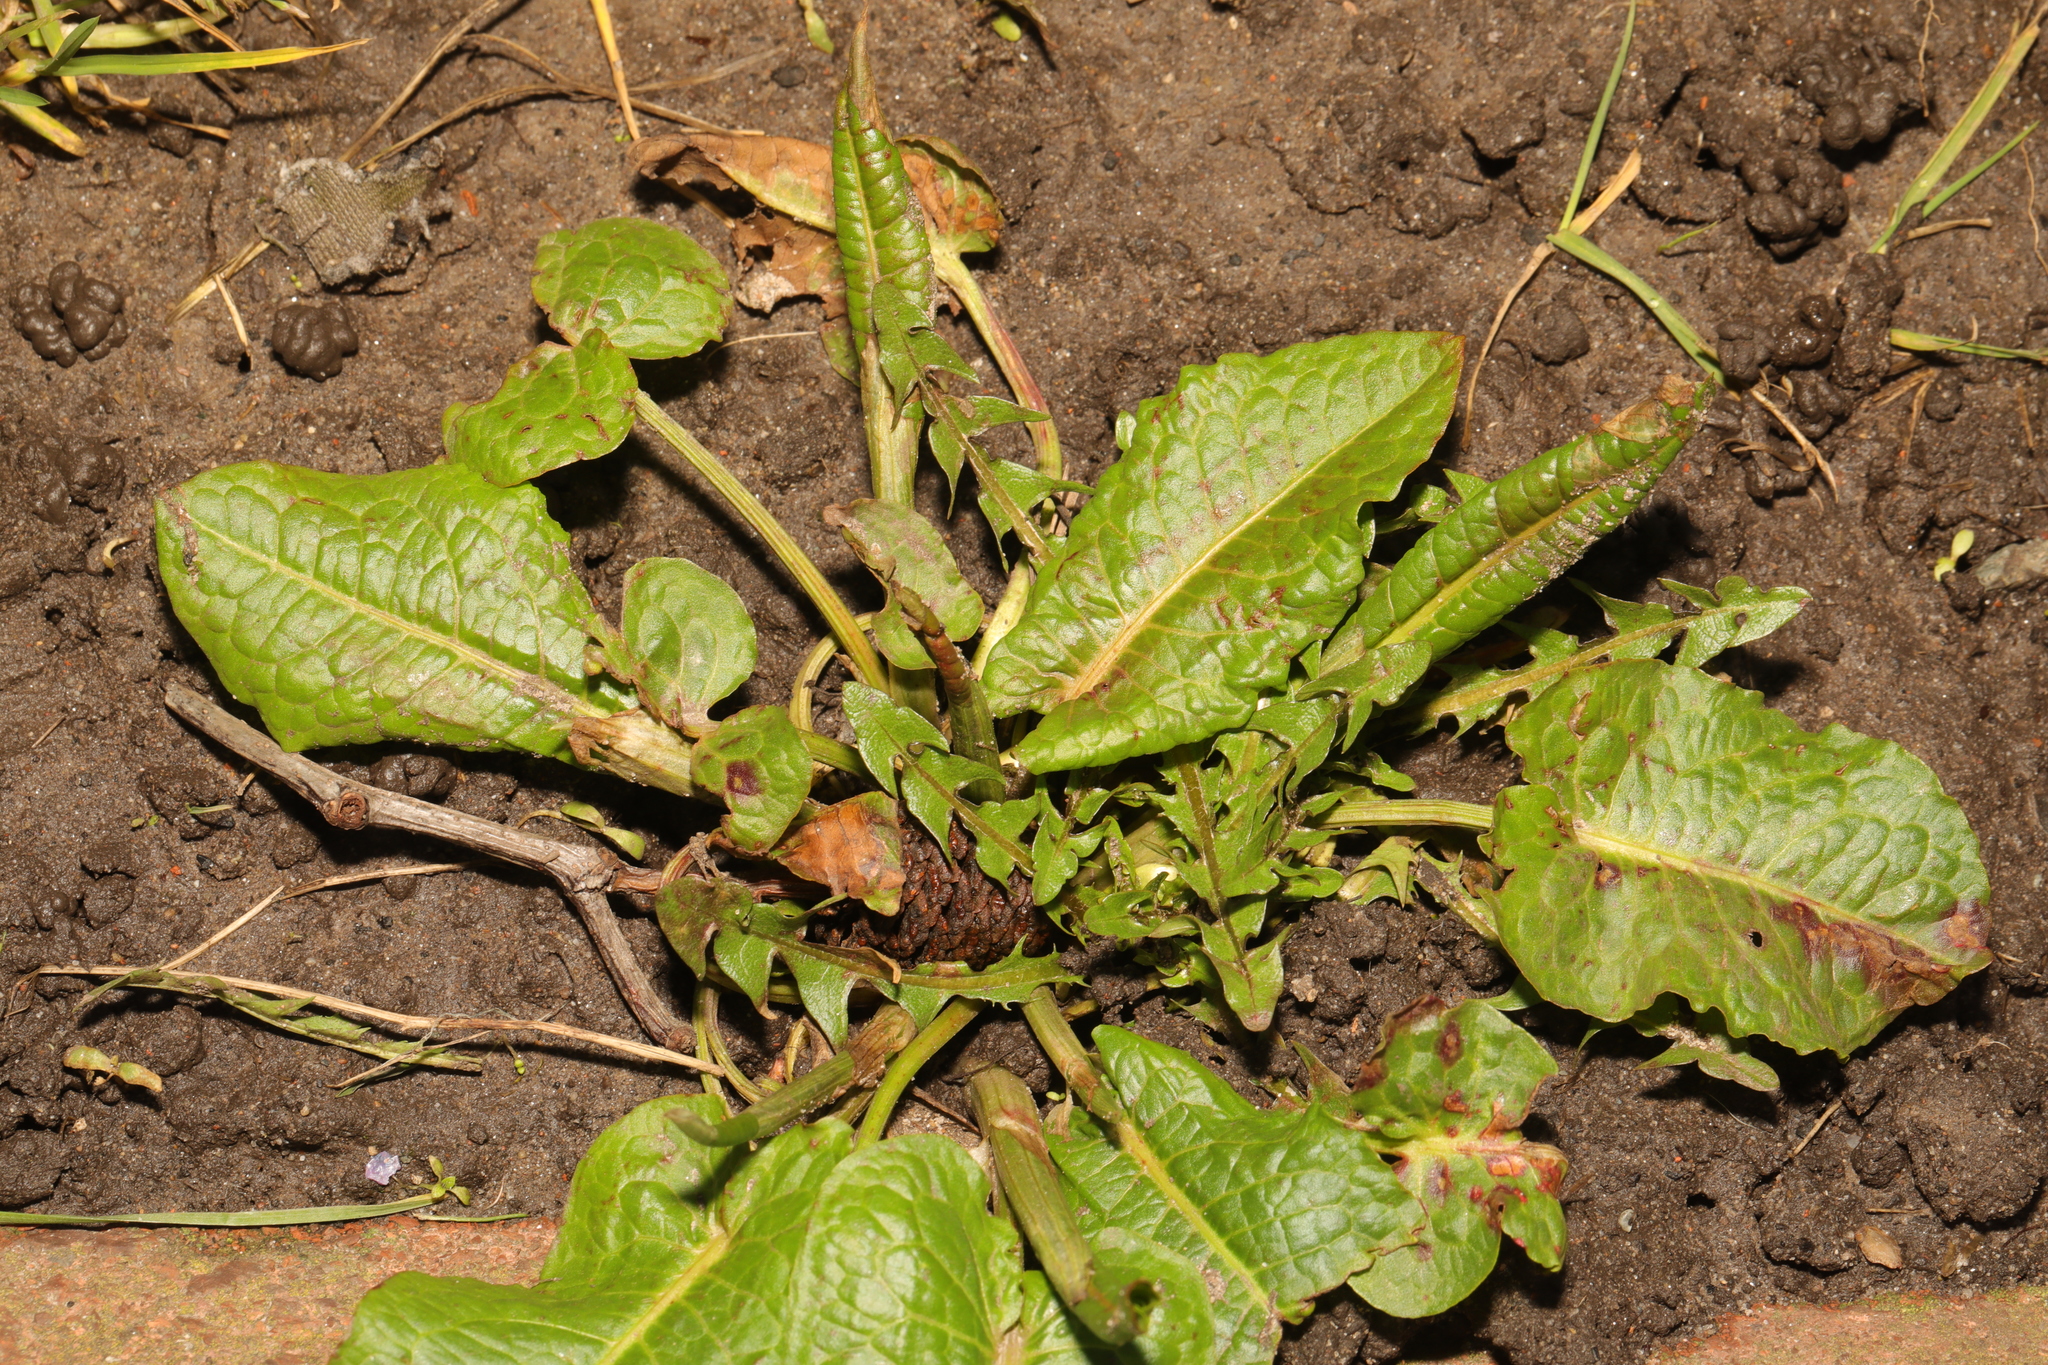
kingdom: Plantae
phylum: Tracheophyta
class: Magnoliopsida
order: Caryophyllales
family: Polygonaceae
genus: Rumex
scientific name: Rumex obtusifolius
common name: Bitter dock
